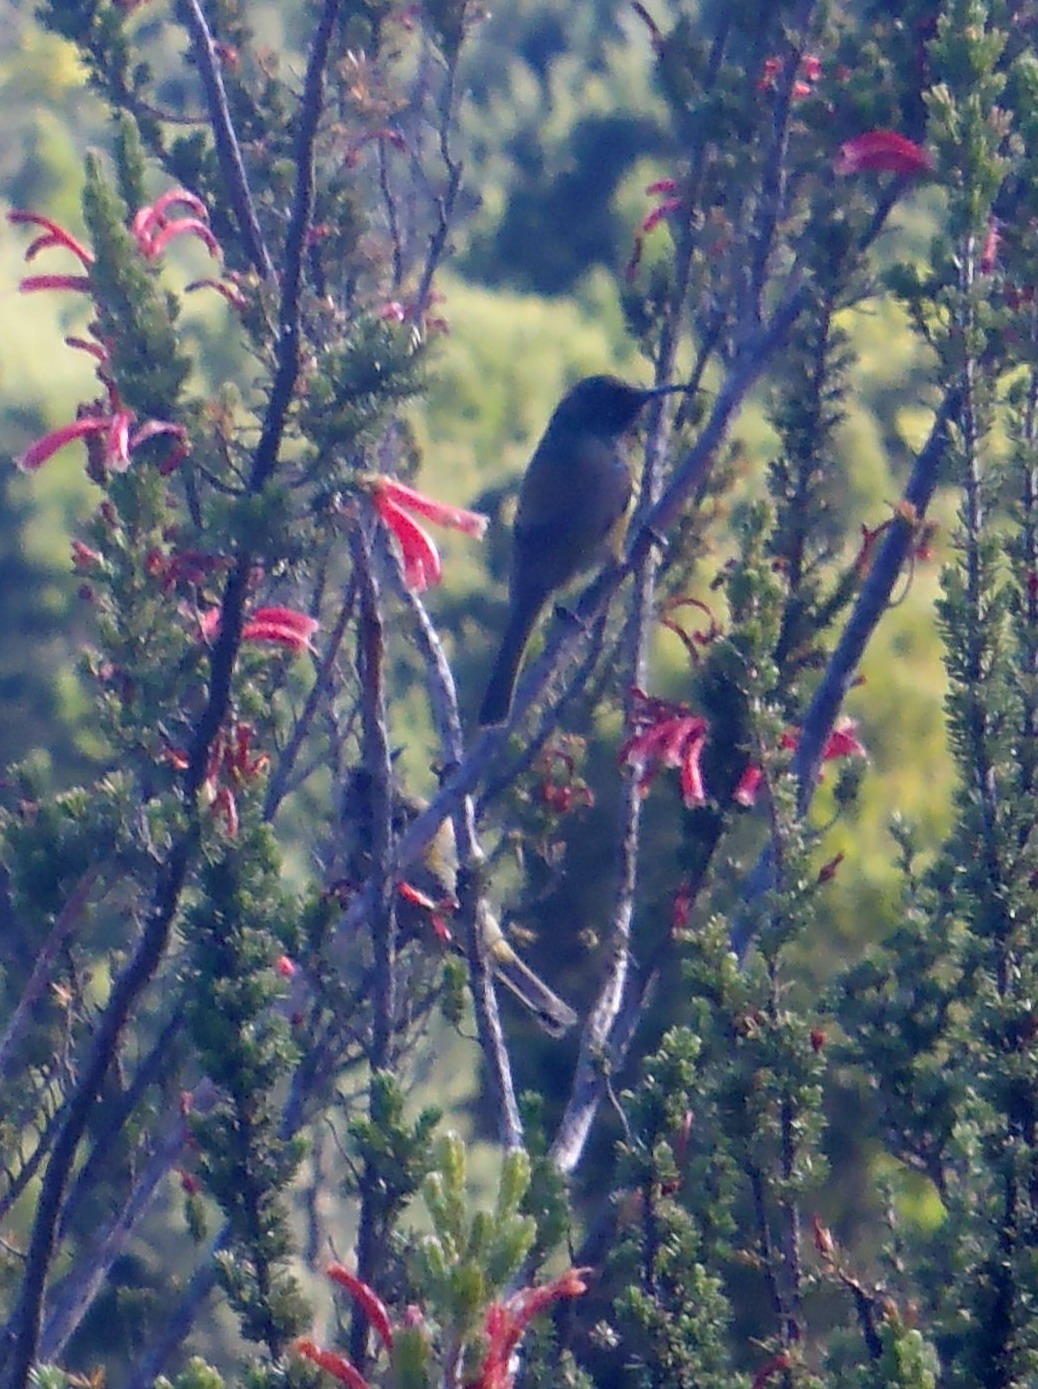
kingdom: Animalia
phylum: Chordata
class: Aves
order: Passeriformes
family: Nectariniidae
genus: Anthobaphes
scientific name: Anthobaphes violacea
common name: Orange-breasted sunbird
